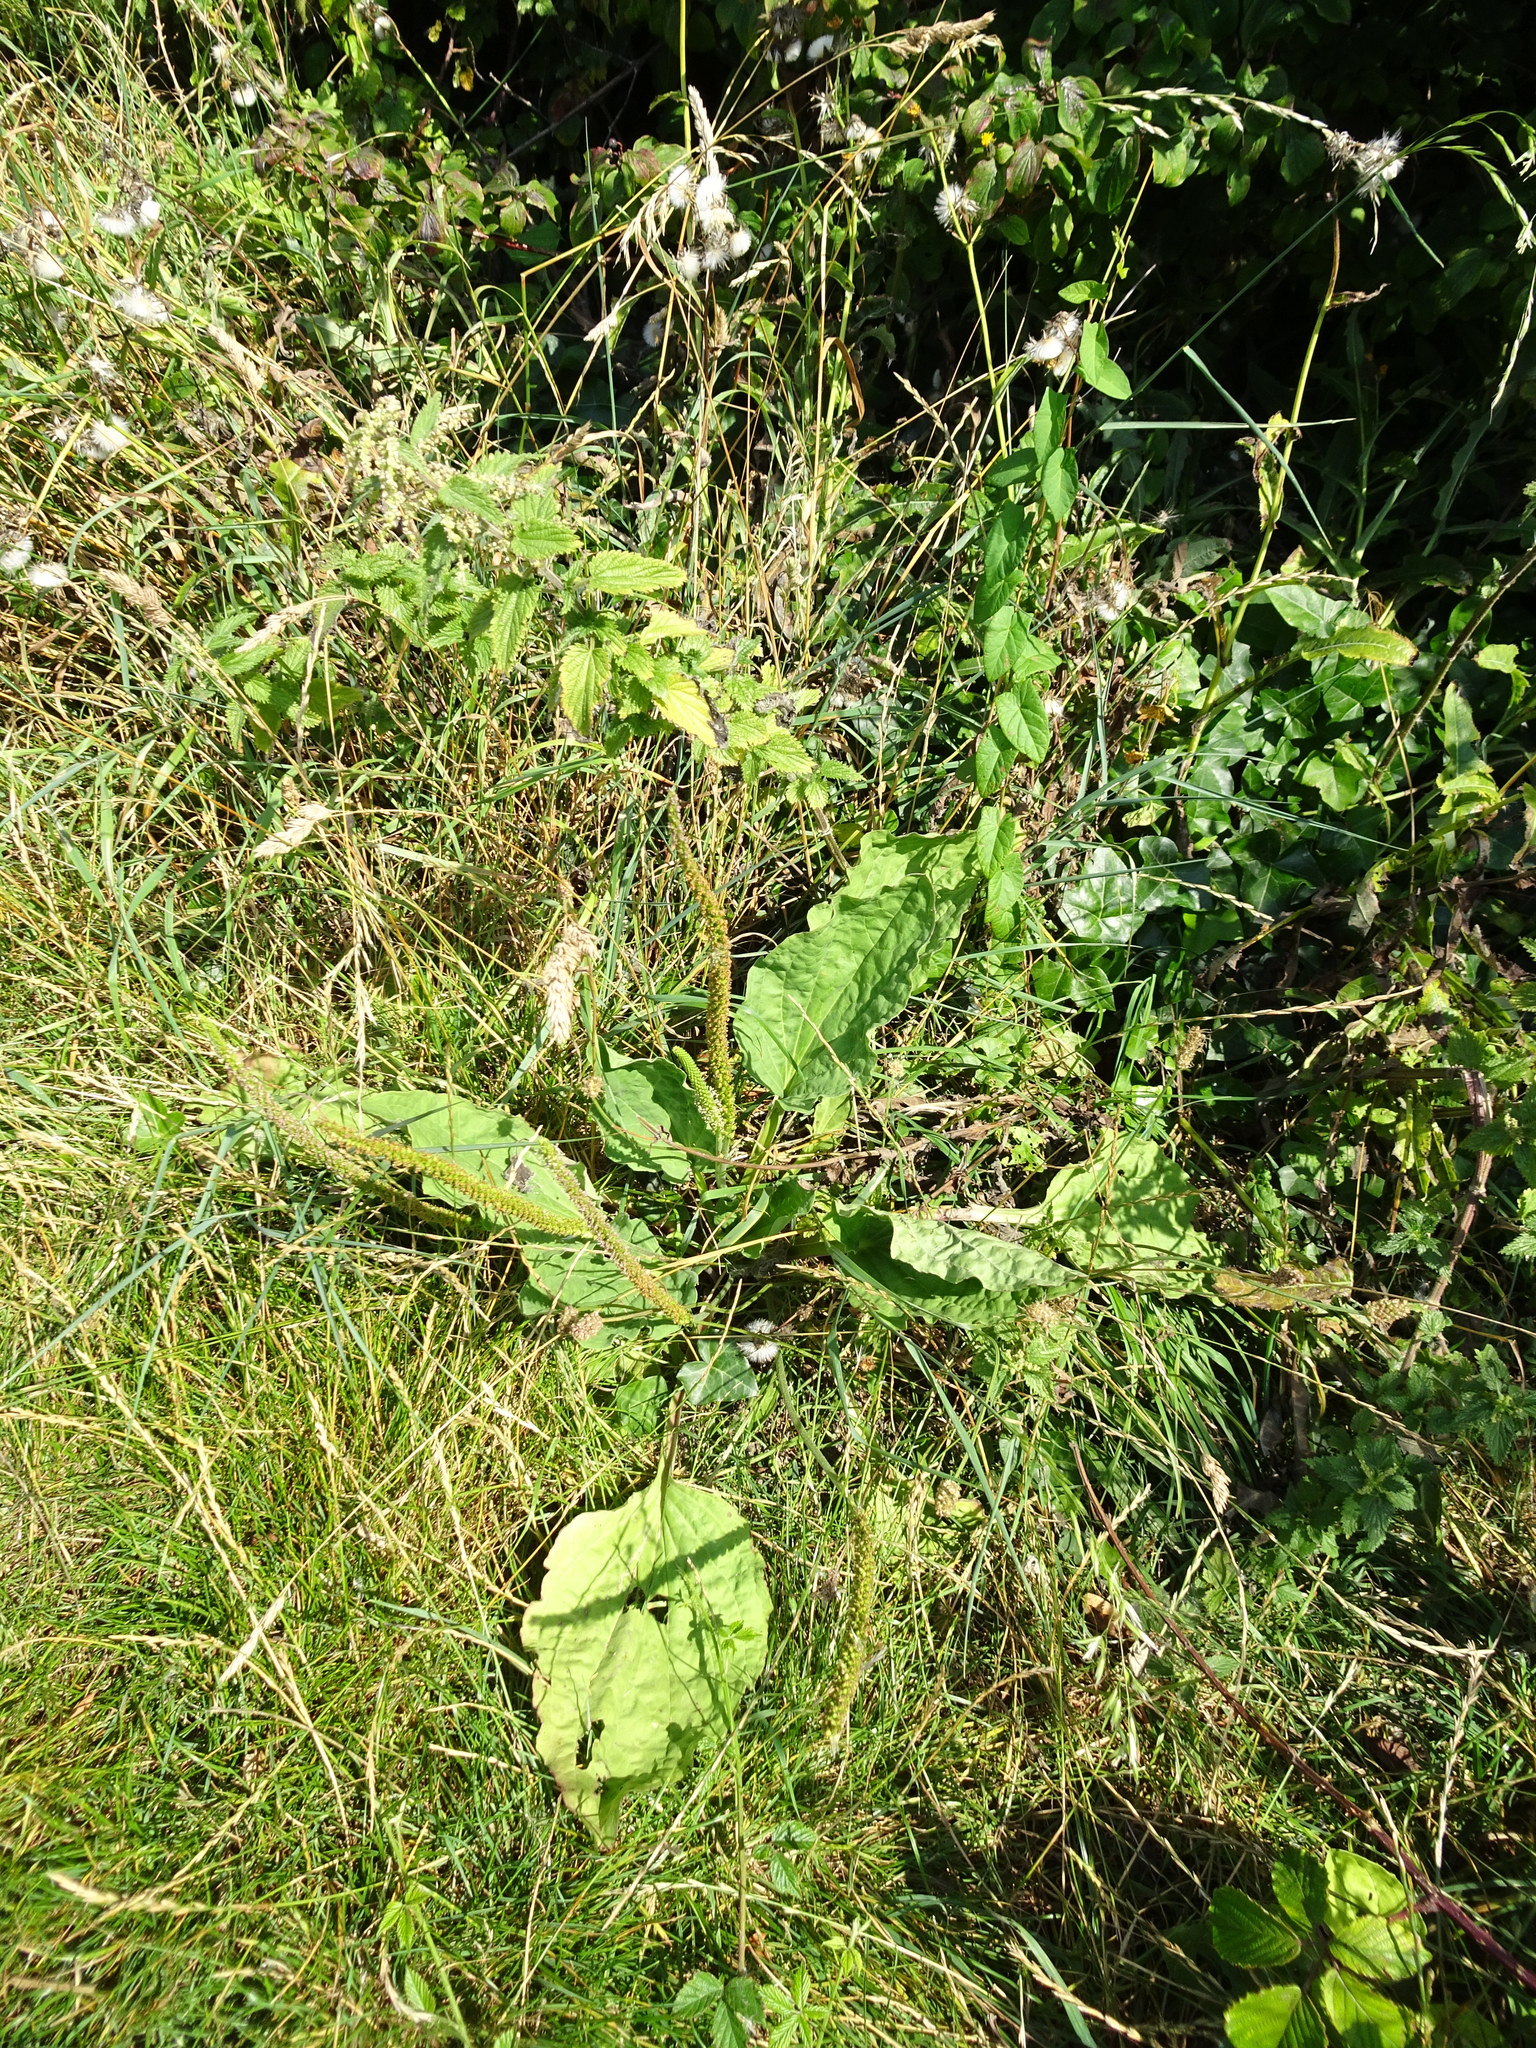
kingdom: Plantae
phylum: Tracheophyta
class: Magnoliopsida
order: Lamiales
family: Plantaginaceae
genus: Plantago
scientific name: Plantago major
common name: Common plantain
